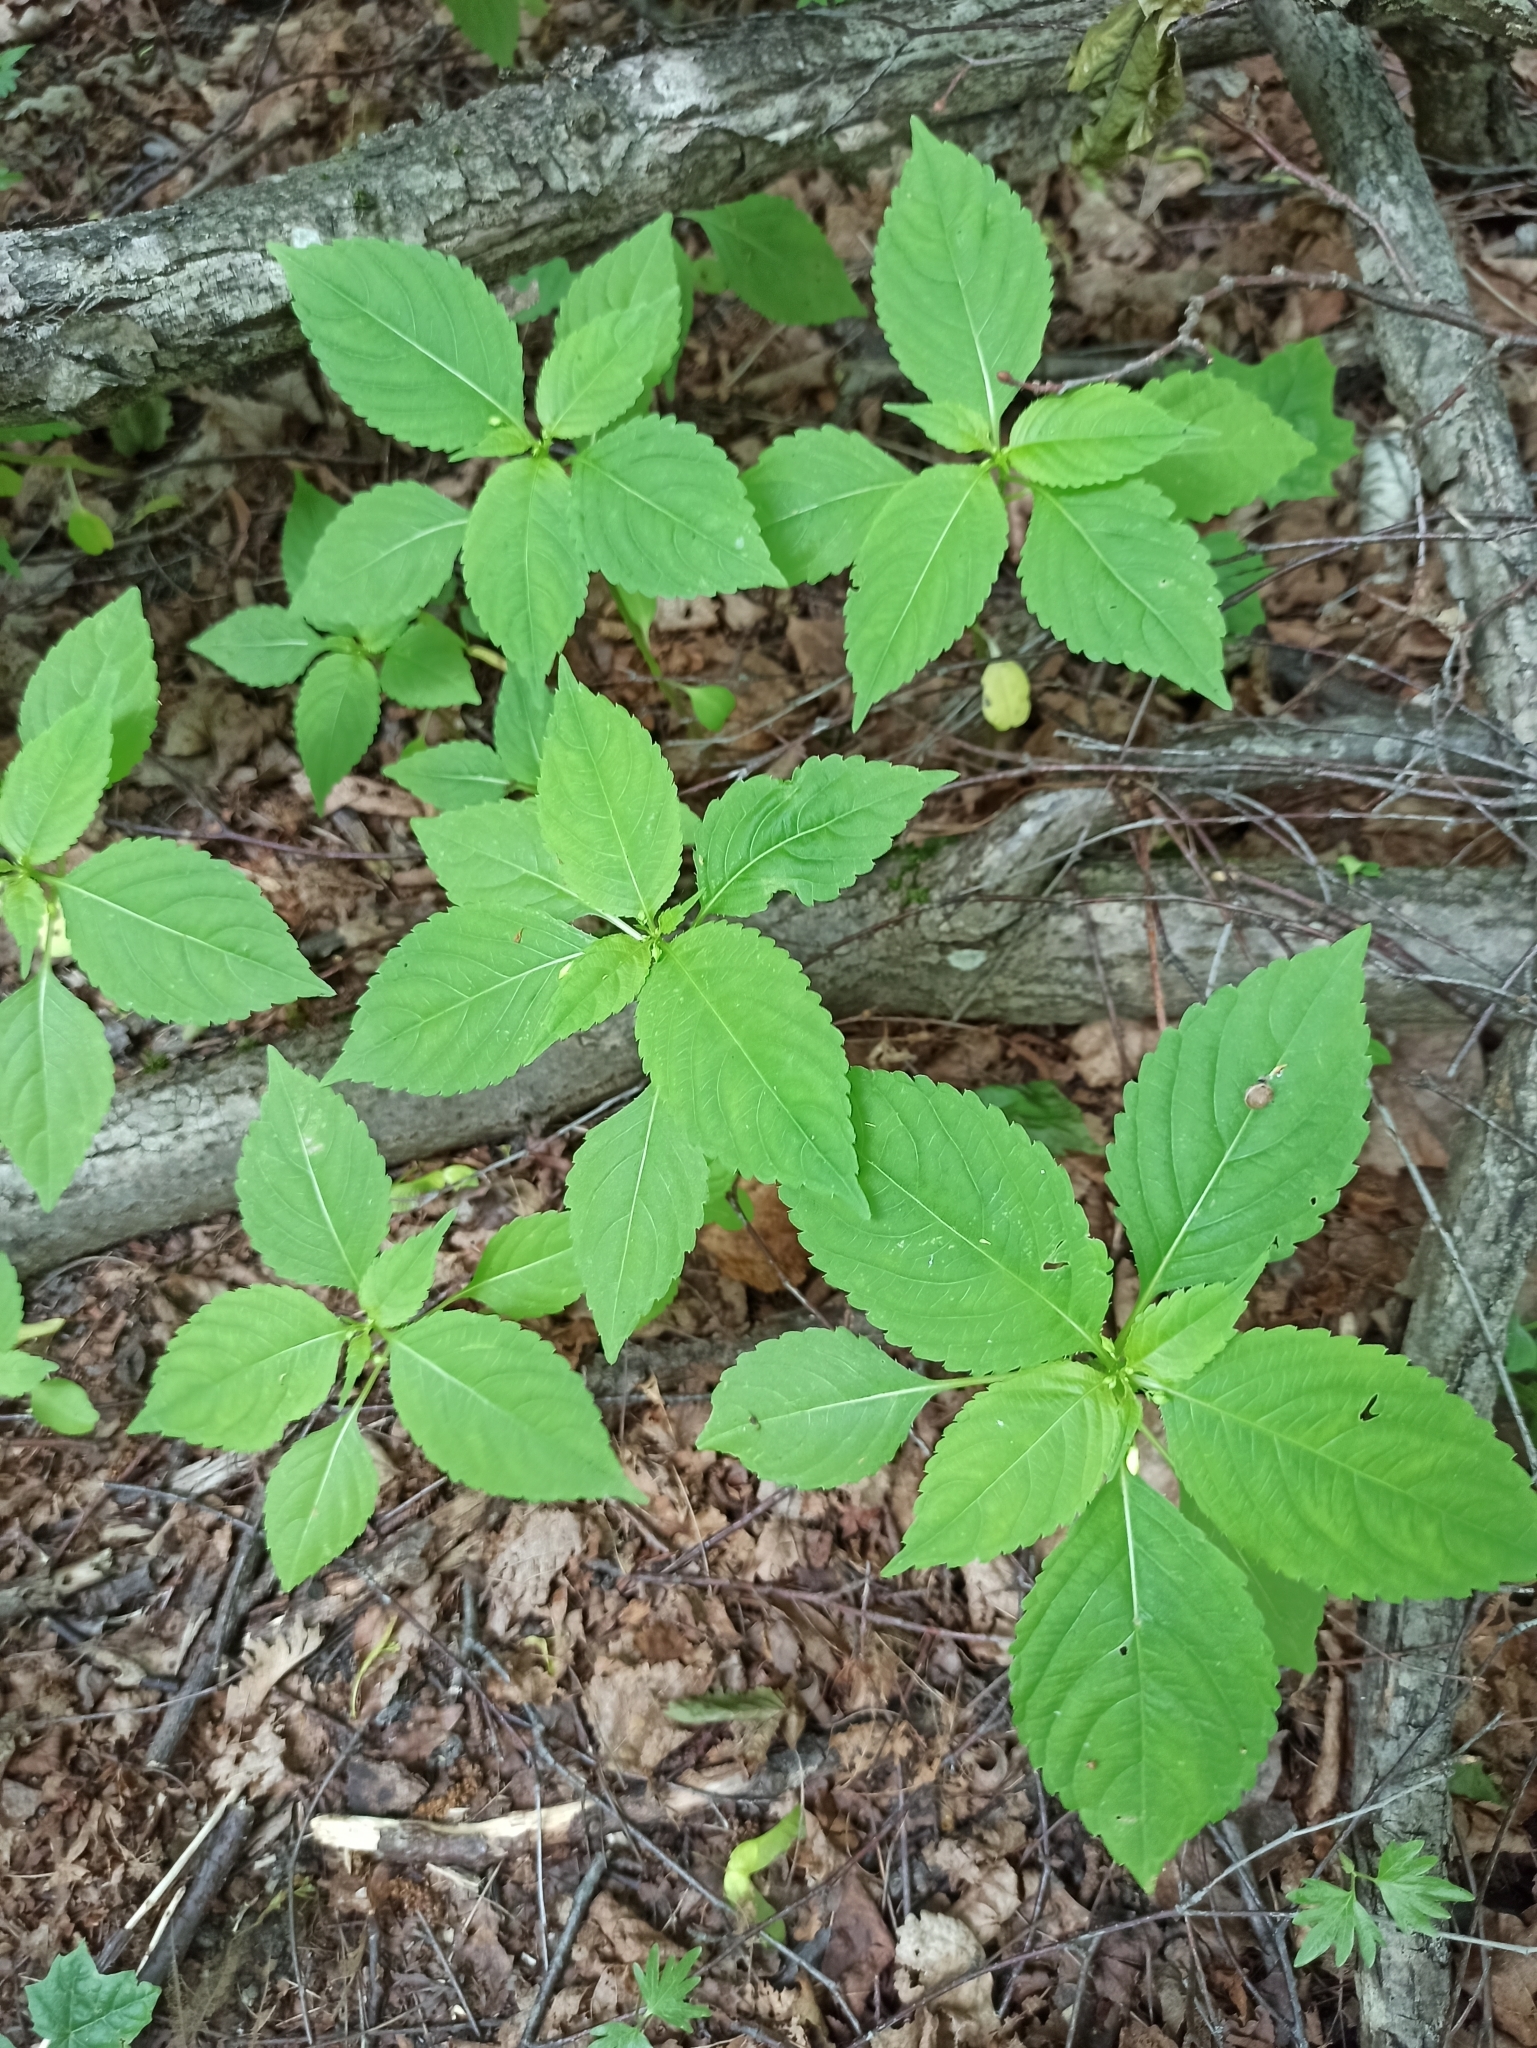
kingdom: Plantae
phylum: Tracheophyta
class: Magnoliopsida
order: Ericales
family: Balsaminaceae
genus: Impatiens
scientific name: Impatiens parviflora
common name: Small balsam
